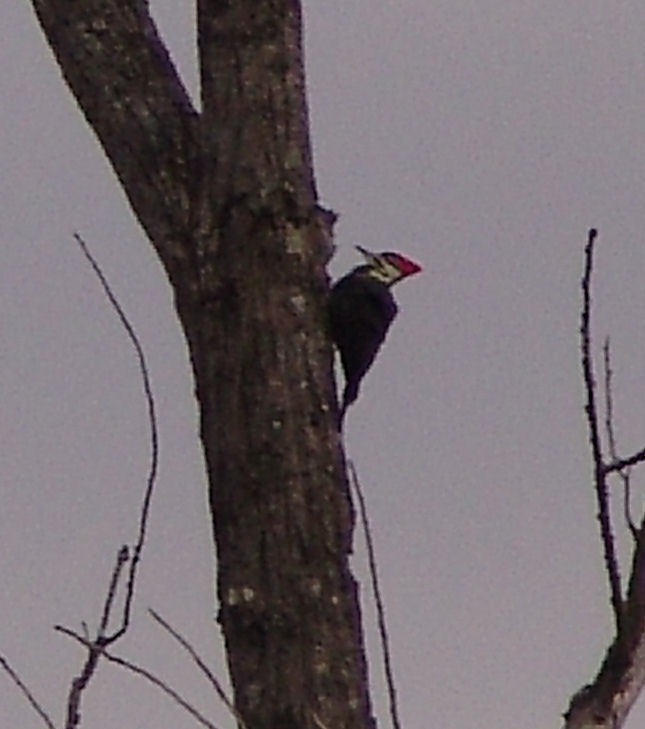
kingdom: Animalia
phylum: Chordata
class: Aves
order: Piciformes
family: Picidae
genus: Dryocopus
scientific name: Dryocopus pileatus
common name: Pileated woodpecker
